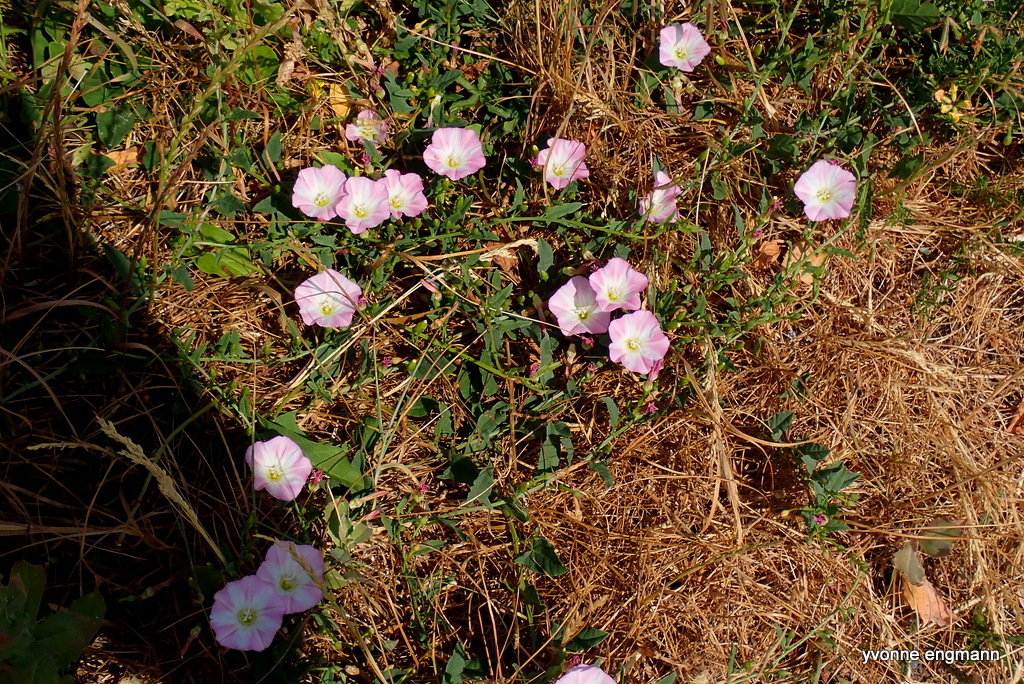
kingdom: Plantae
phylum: Tracheophyta
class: Magnoliopsida
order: Solanales
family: Convolvulaceae
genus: Convolvulus
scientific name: Convolvulus arvensis
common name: Field bindweed
